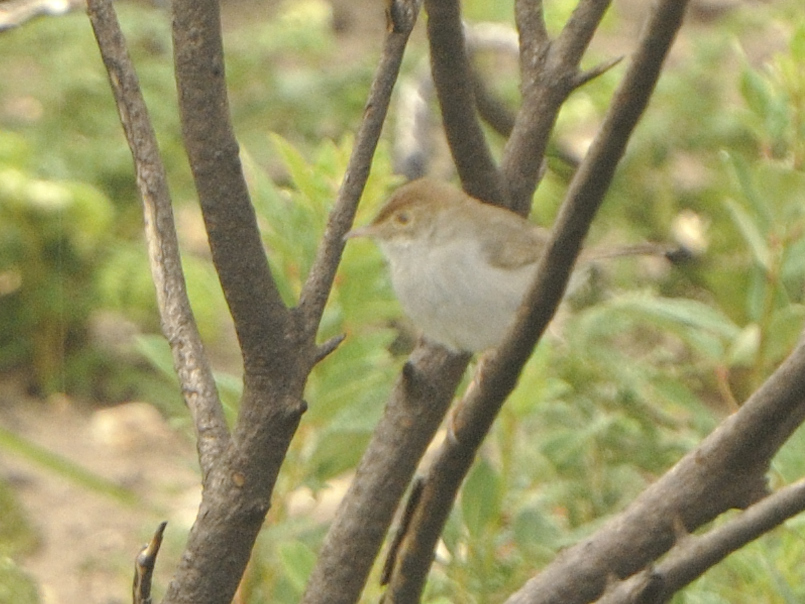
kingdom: Animalia
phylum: Chordata
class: Aves
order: Passeriformes
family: Cisticolidae
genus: Cisticola
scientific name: Cisticola fulvicapilla
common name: Neddicky
